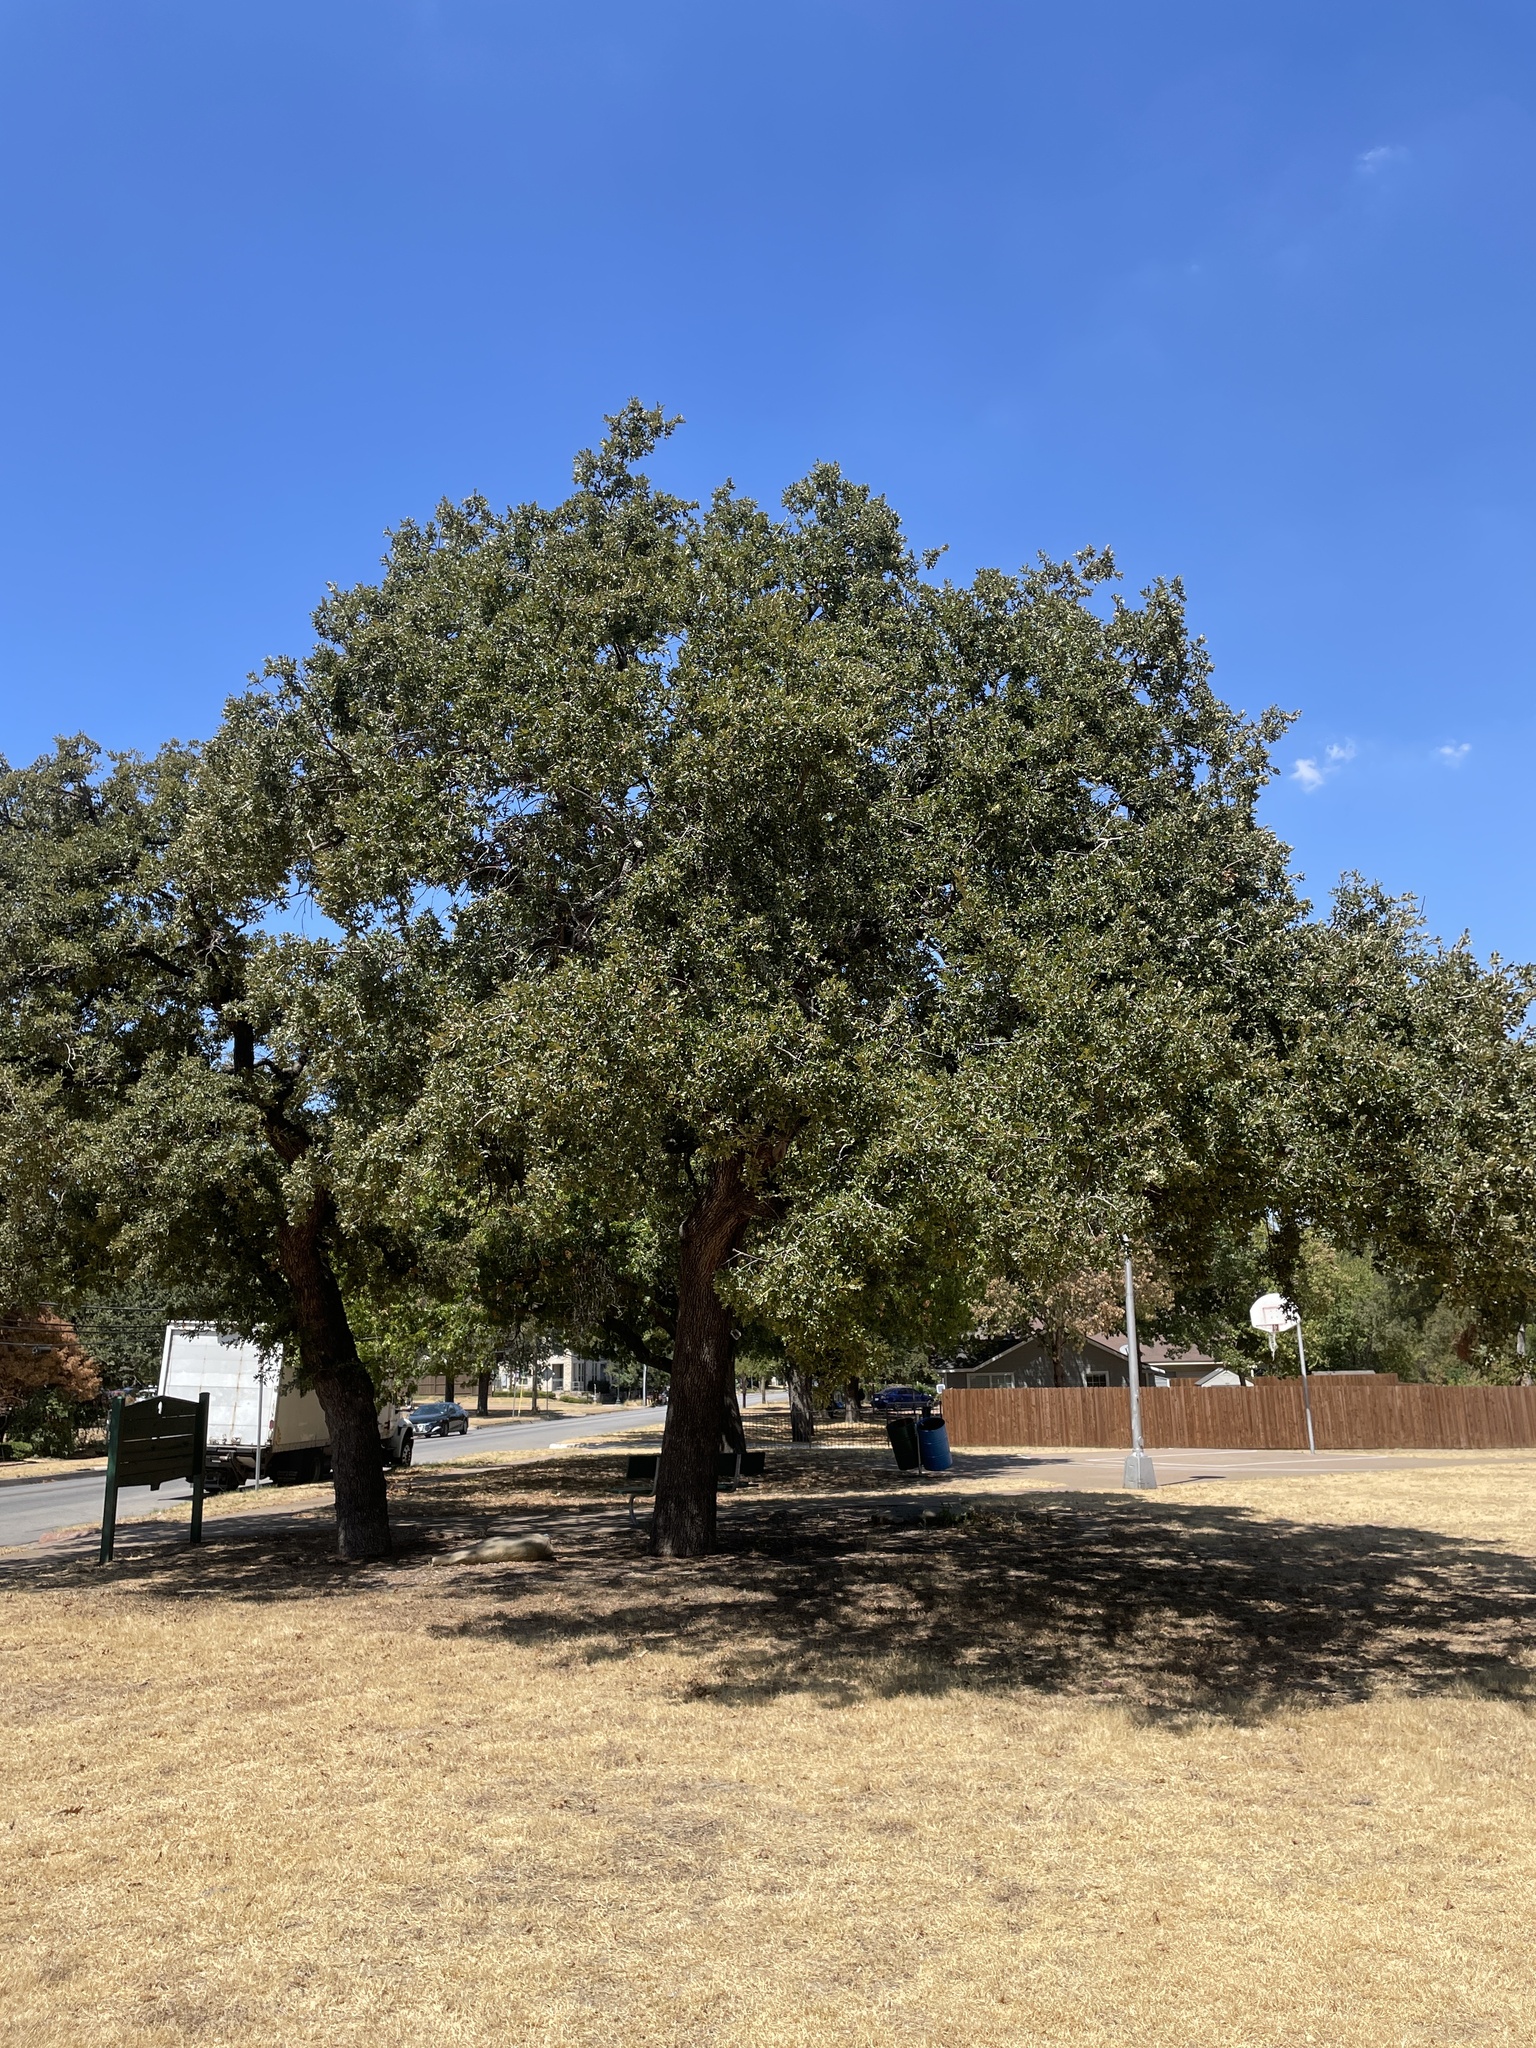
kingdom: Plantae
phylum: Tracheophyta
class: Magnoliopsida
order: Fagales
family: Fagaceae
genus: Quercus
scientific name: Quercus stellata
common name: Post oak
